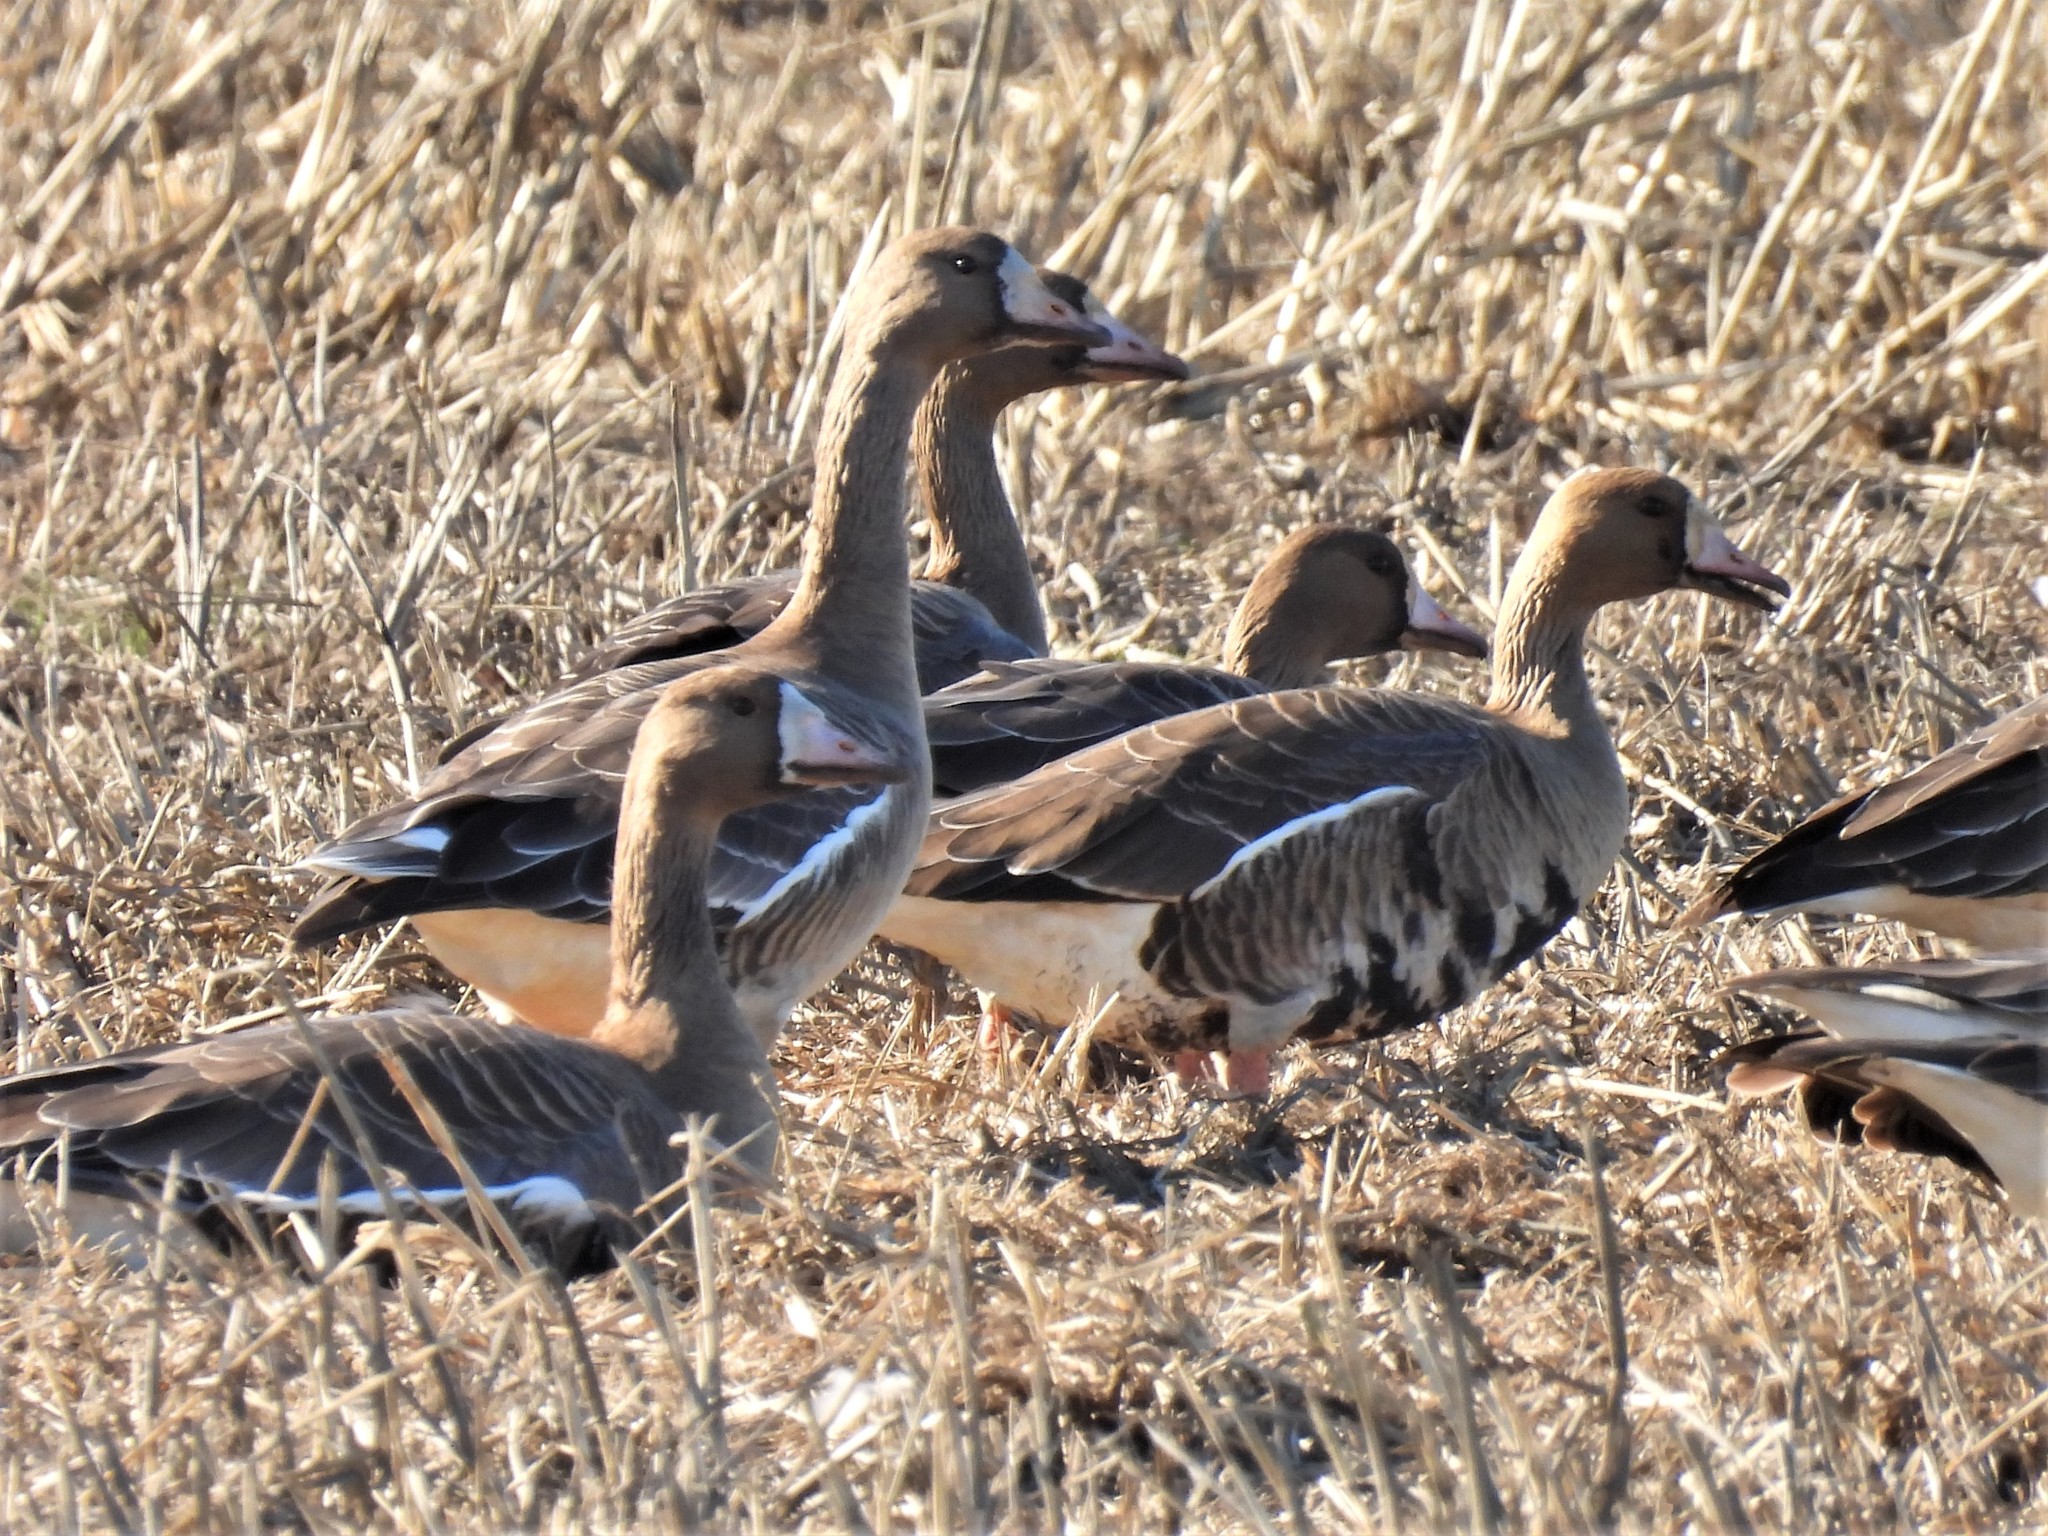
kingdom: Animalia
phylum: Chordata
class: Aves
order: Anseriformes
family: Anatidae
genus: Anser
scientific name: Anser albifrons
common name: Greater white-fronted goose
